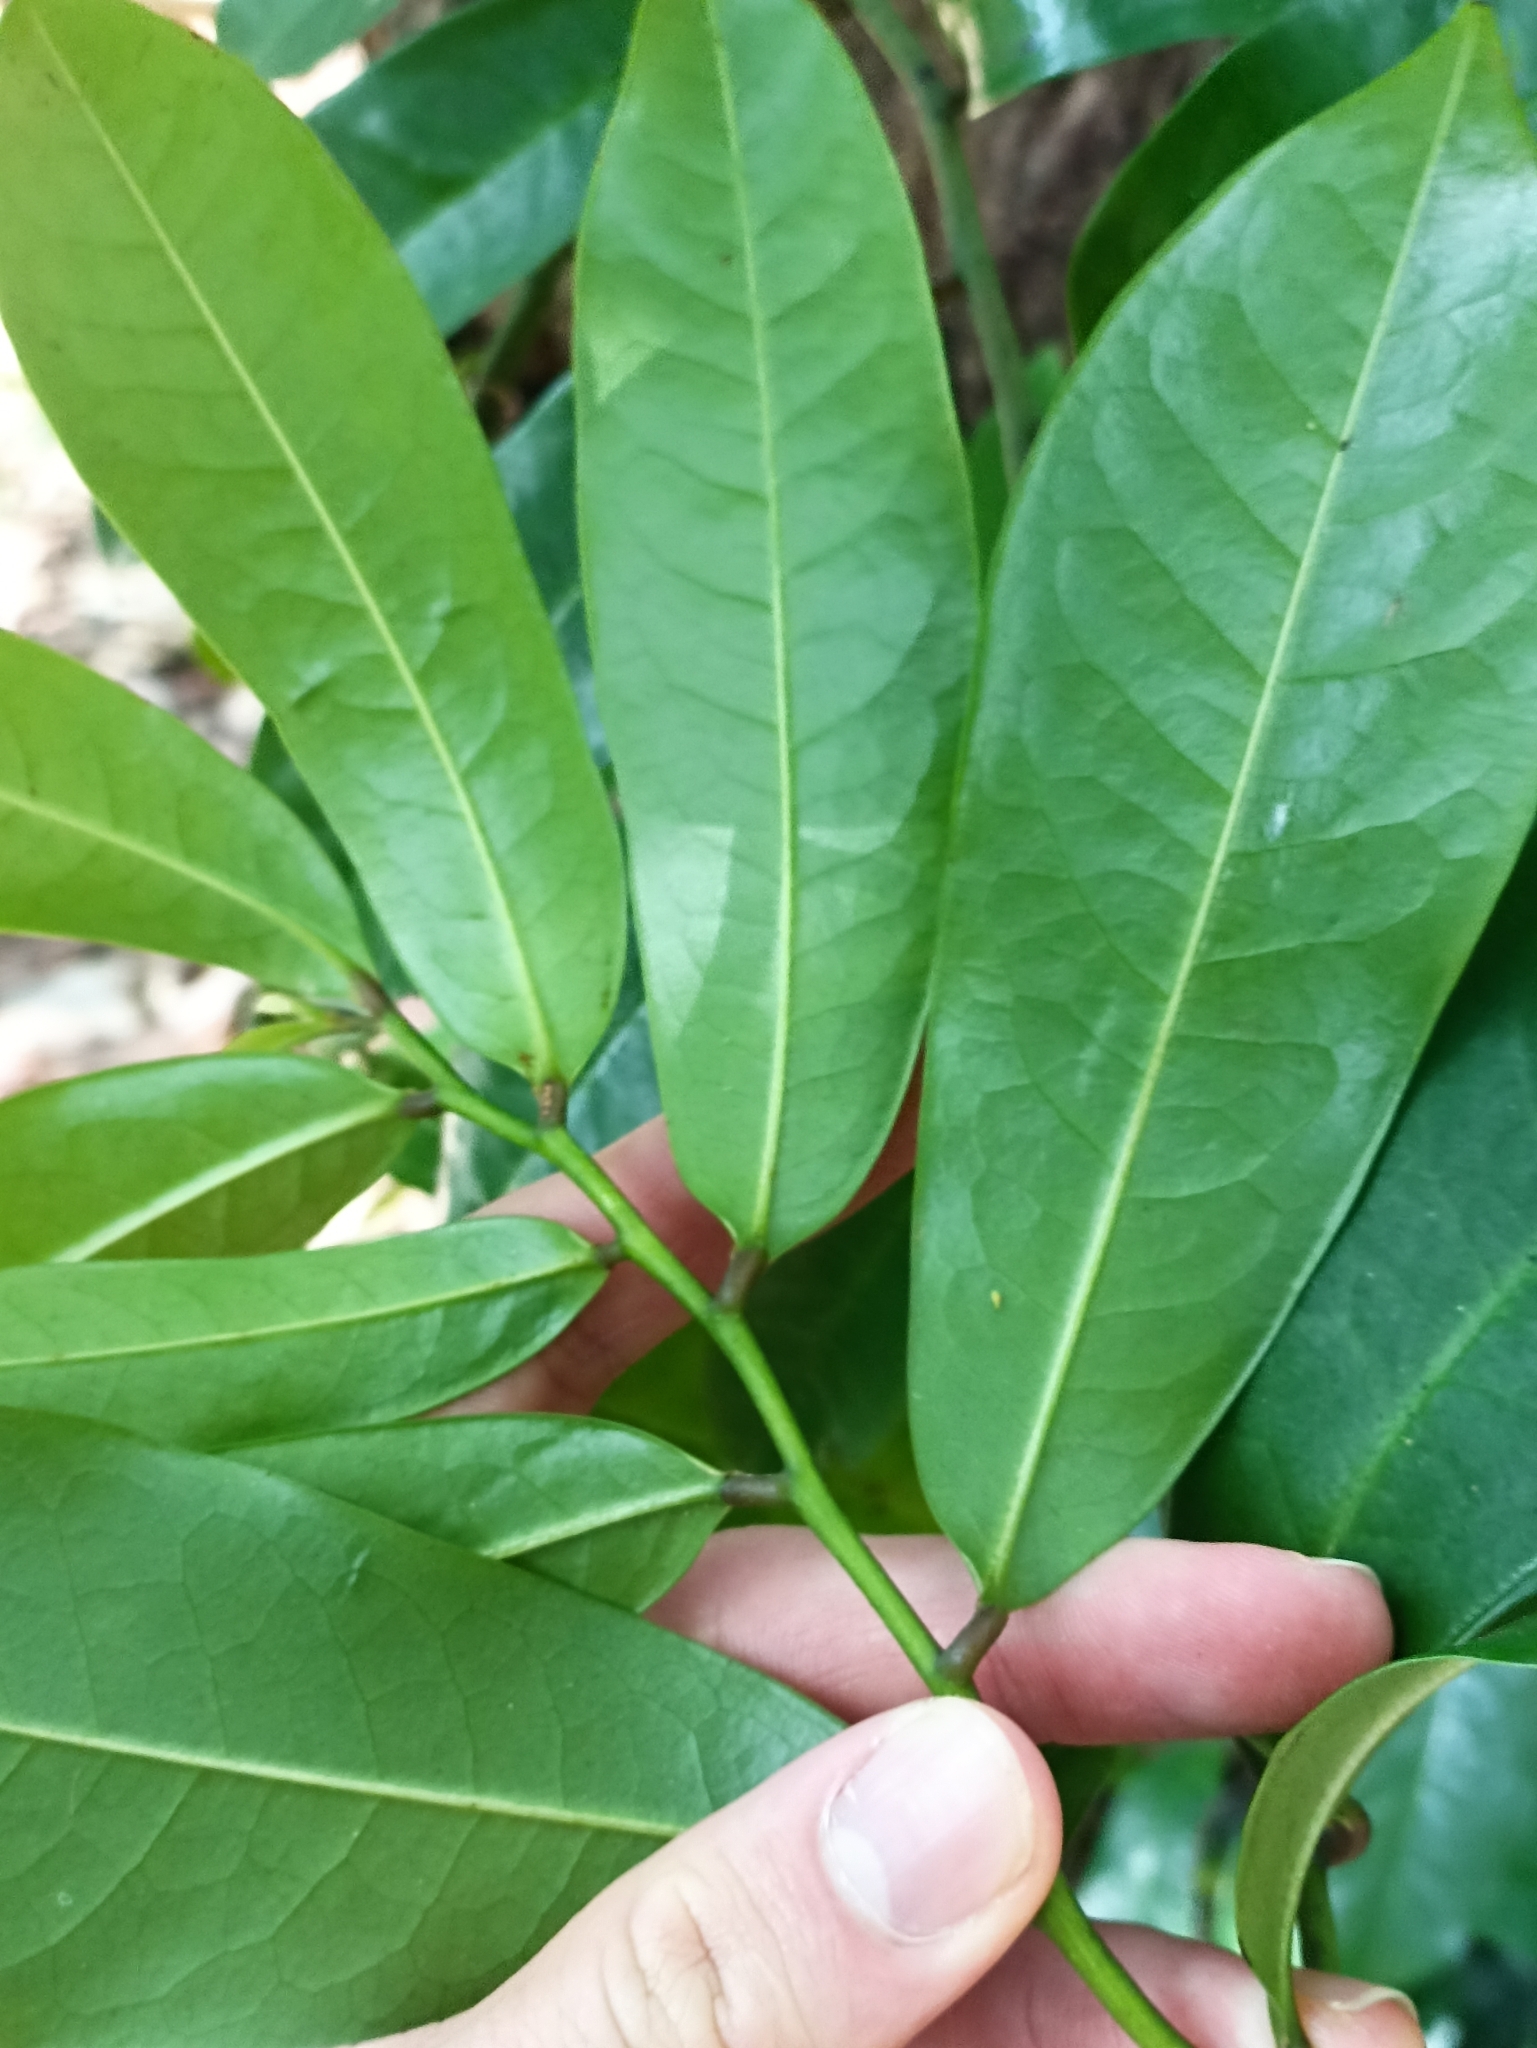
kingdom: Plantae
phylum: Tracheophyta
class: Magnoliopsida
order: Magnoliales
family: Eupomatiaceae
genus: Eupomatia
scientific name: Eupomatia laurina
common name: Bolwarra
